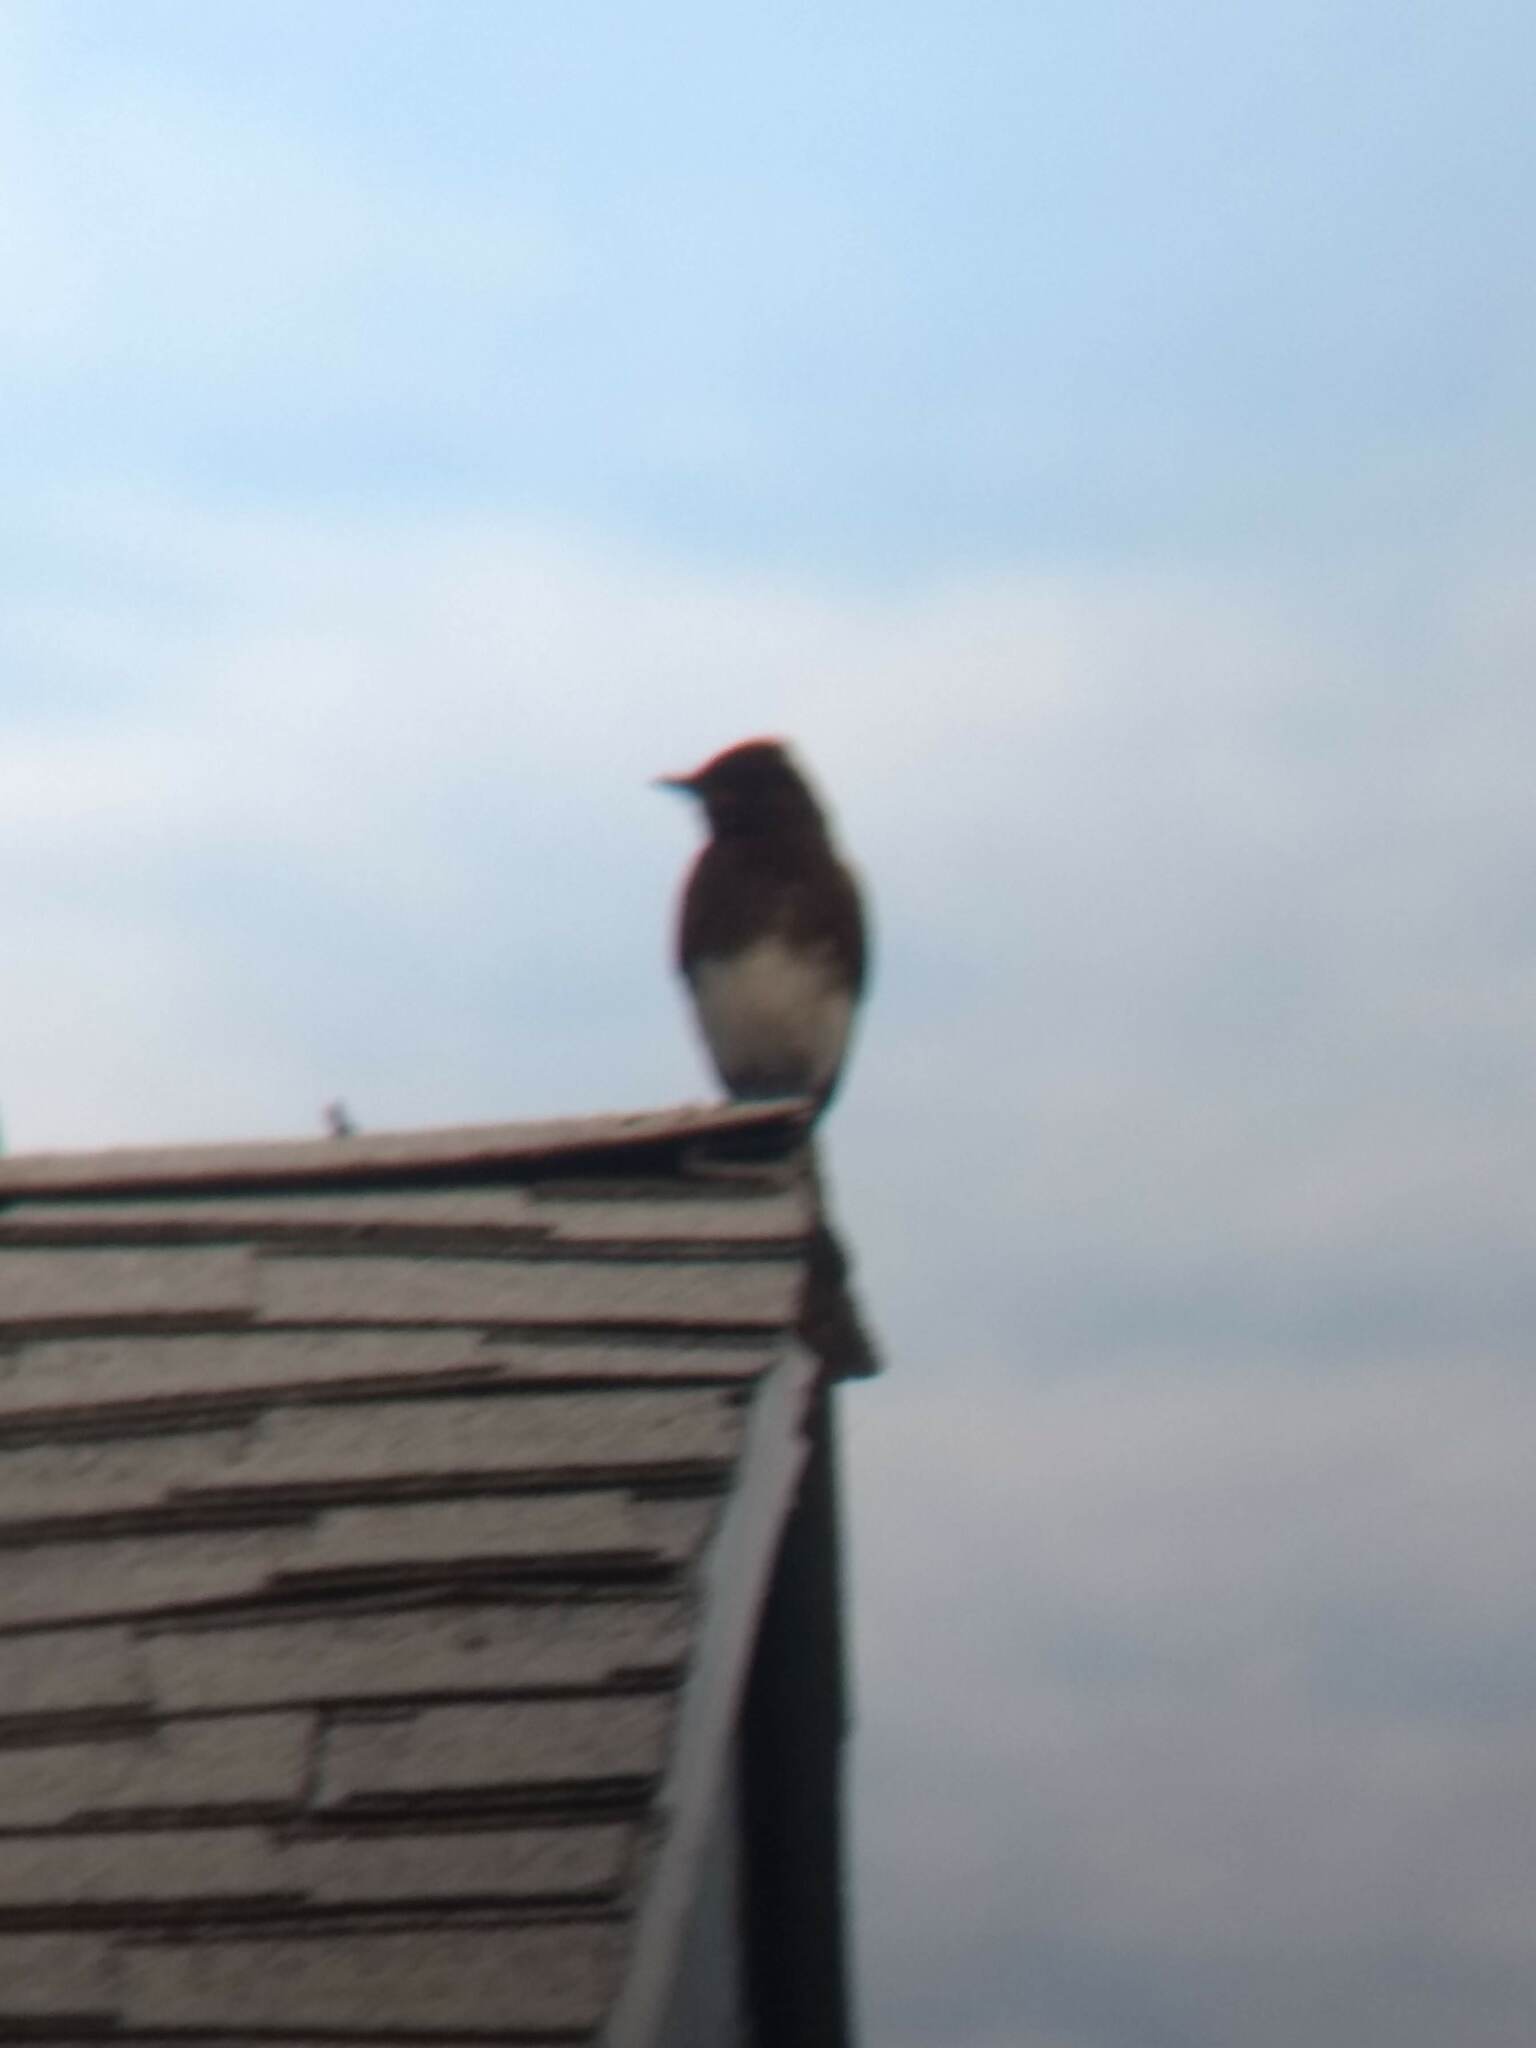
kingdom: Animalia
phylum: Chordata
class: Aves
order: Passeriformes
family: Tyrannidae
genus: Sayornis
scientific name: Sayornis nigricans
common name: Black phoebe
